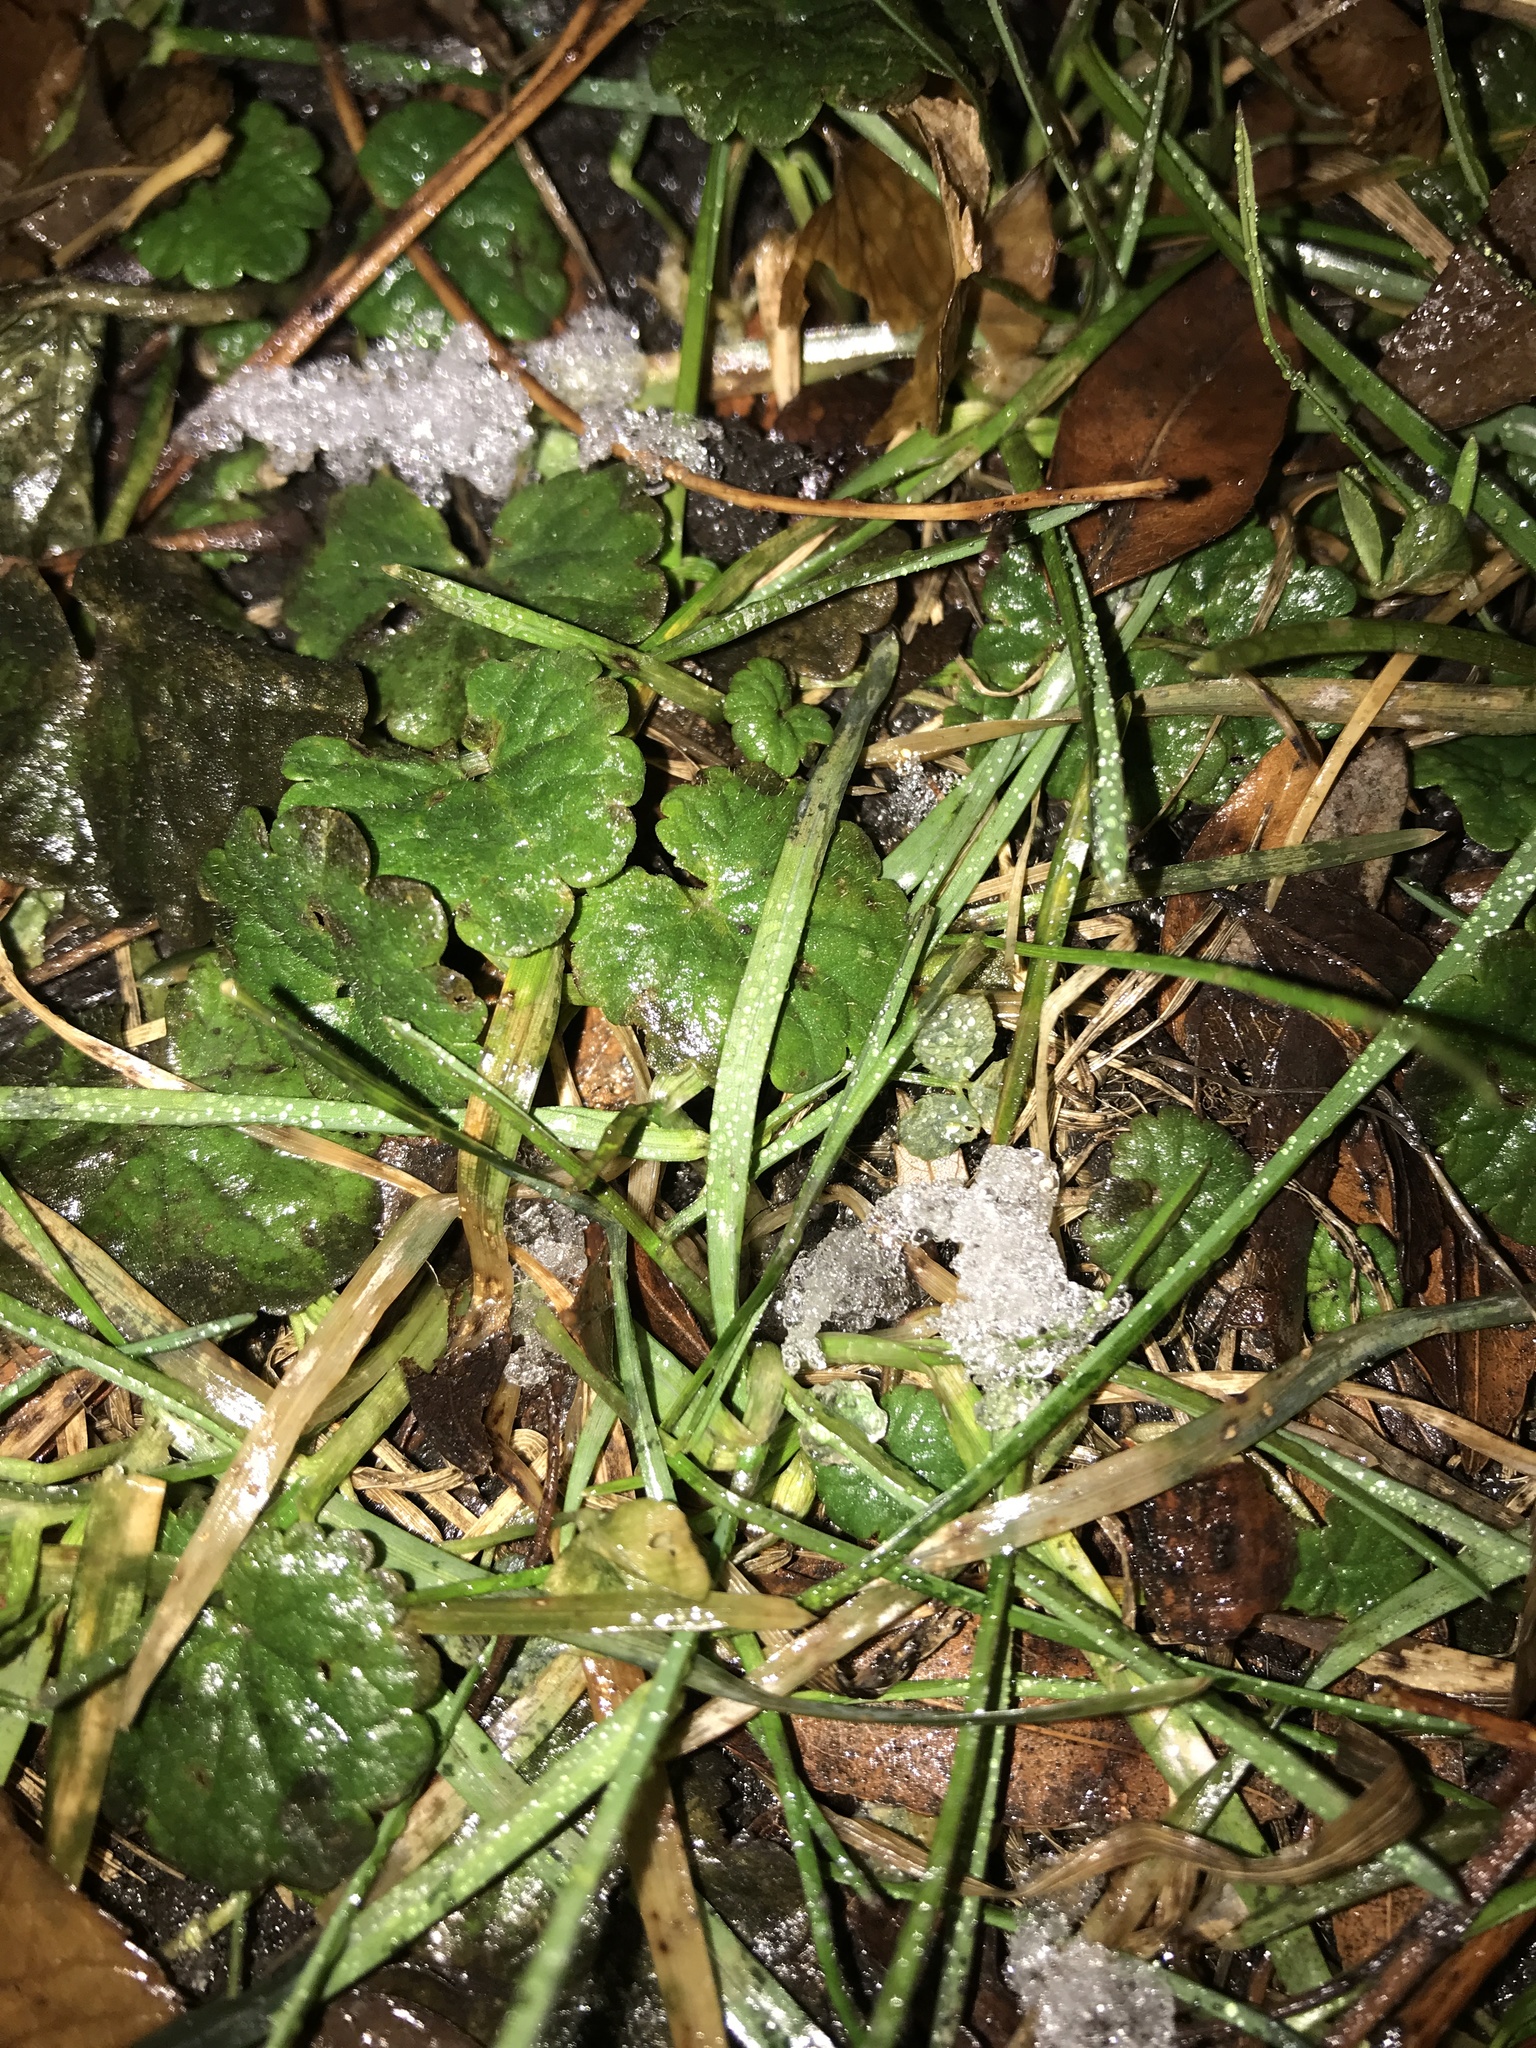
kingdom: Plantae
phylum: Tracheophyta
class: Magnoliopsida
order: Lamiales
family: Lamiaceae
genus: Glechoma
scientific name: Glechoma hederacea
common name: Ground ivy
